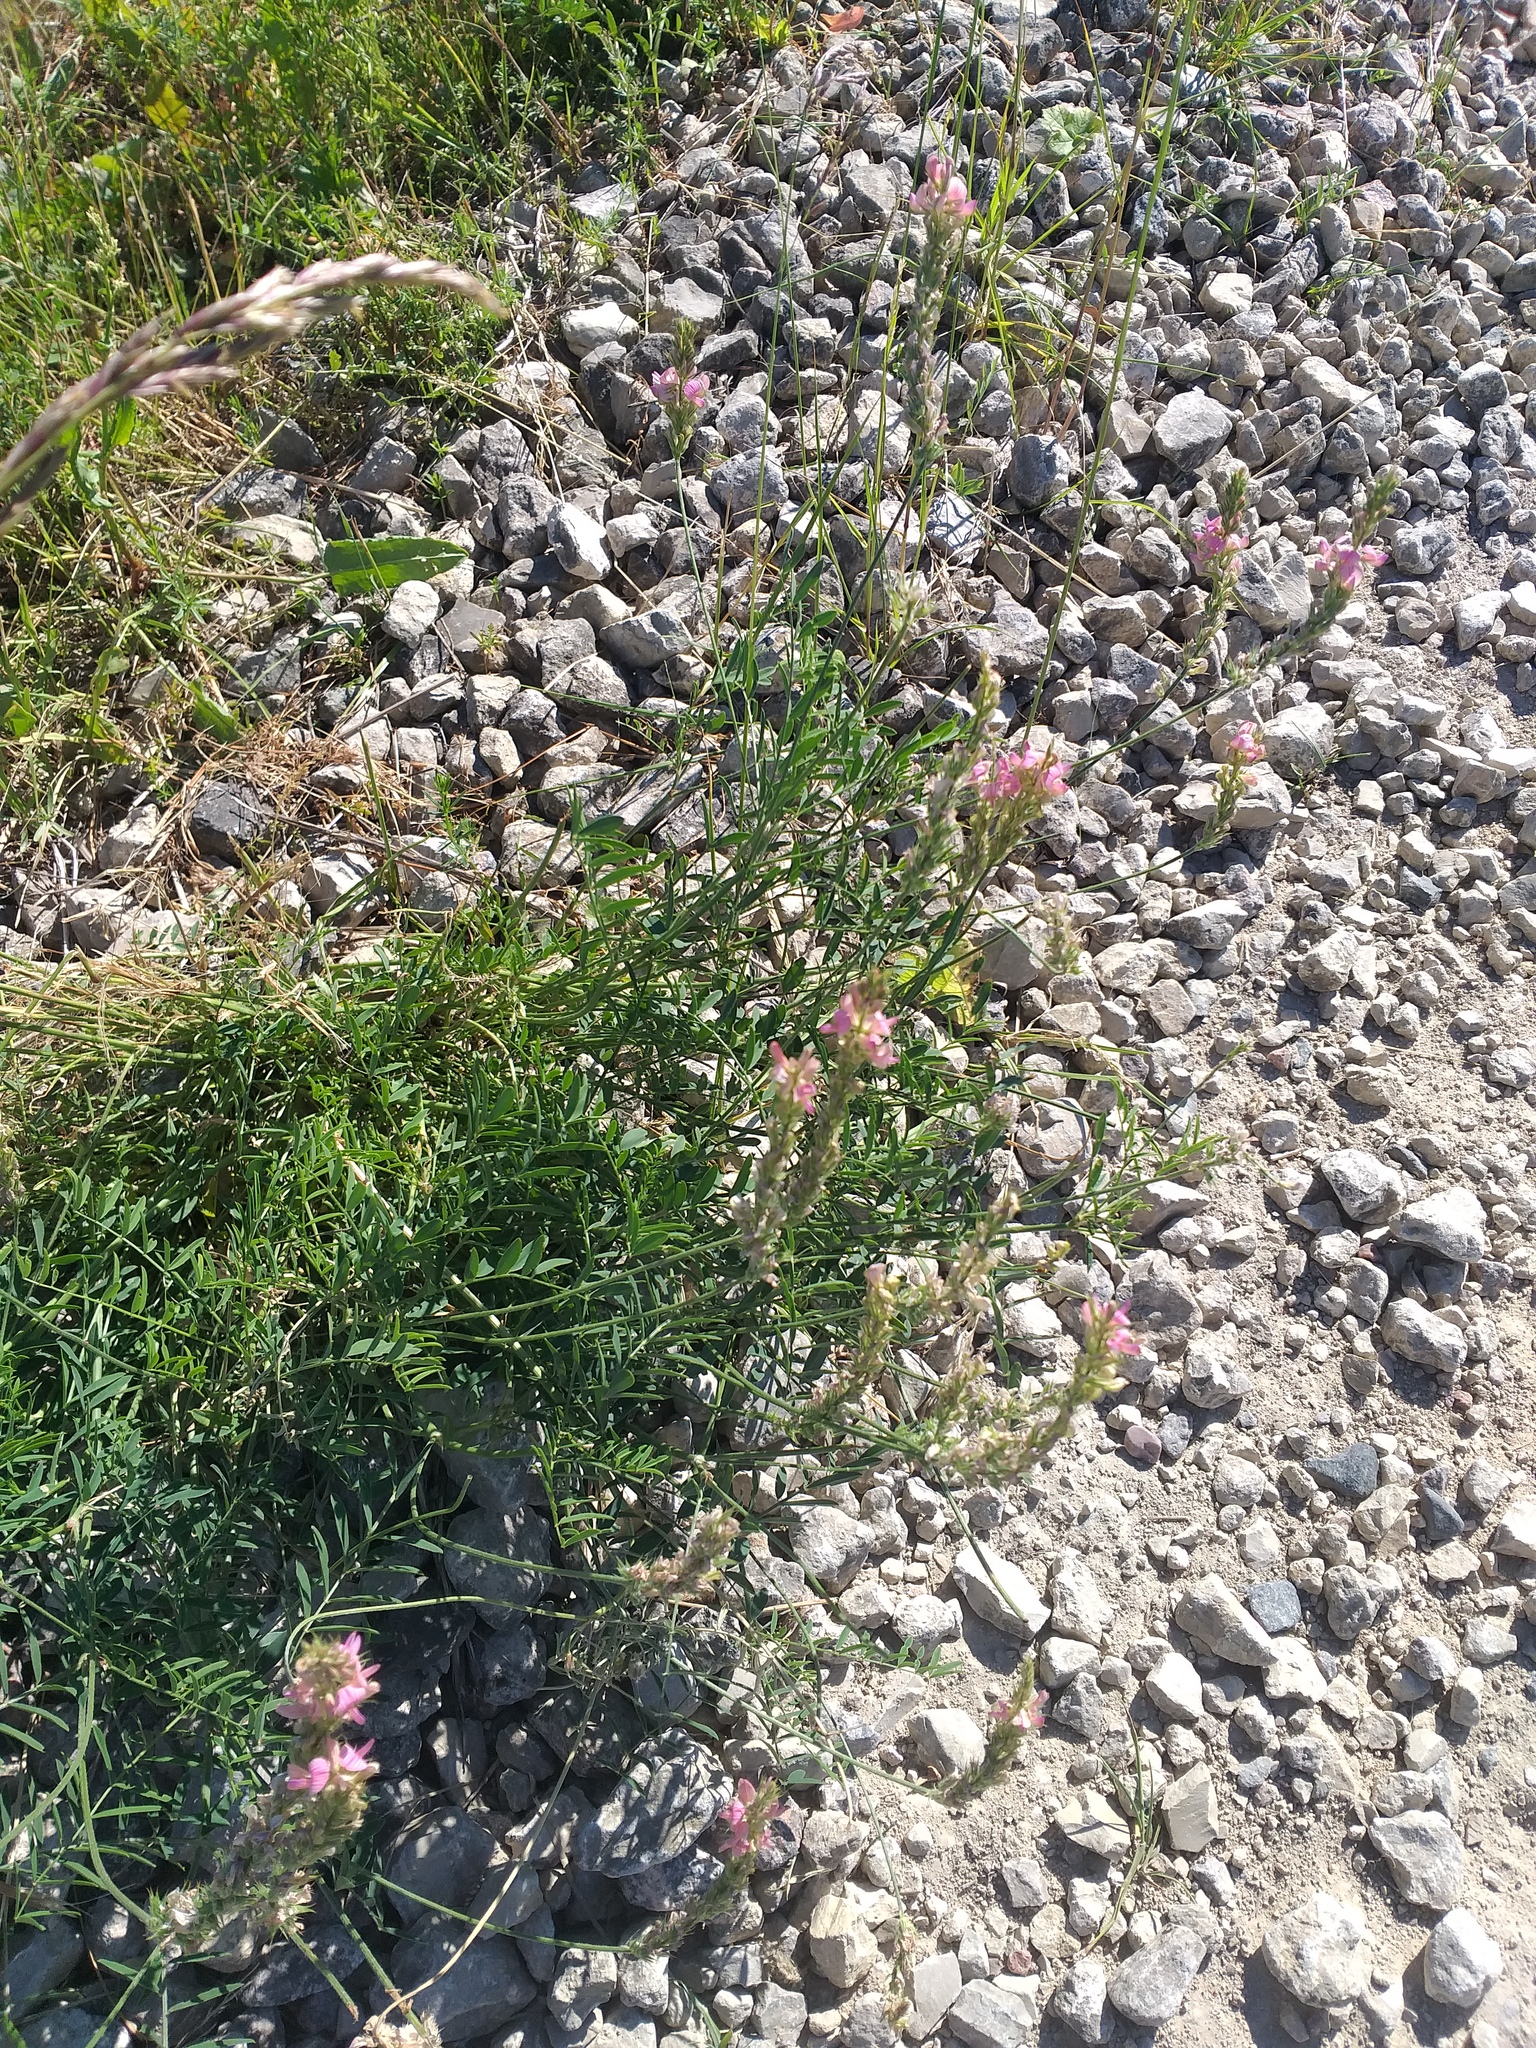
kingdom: Plantae
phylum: Tracheophyta
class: Magnoliopsida
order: Fabales
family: Fabaceae
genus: Onobrychis
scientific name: Onobrychis viciifolia
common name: Sainfoin
